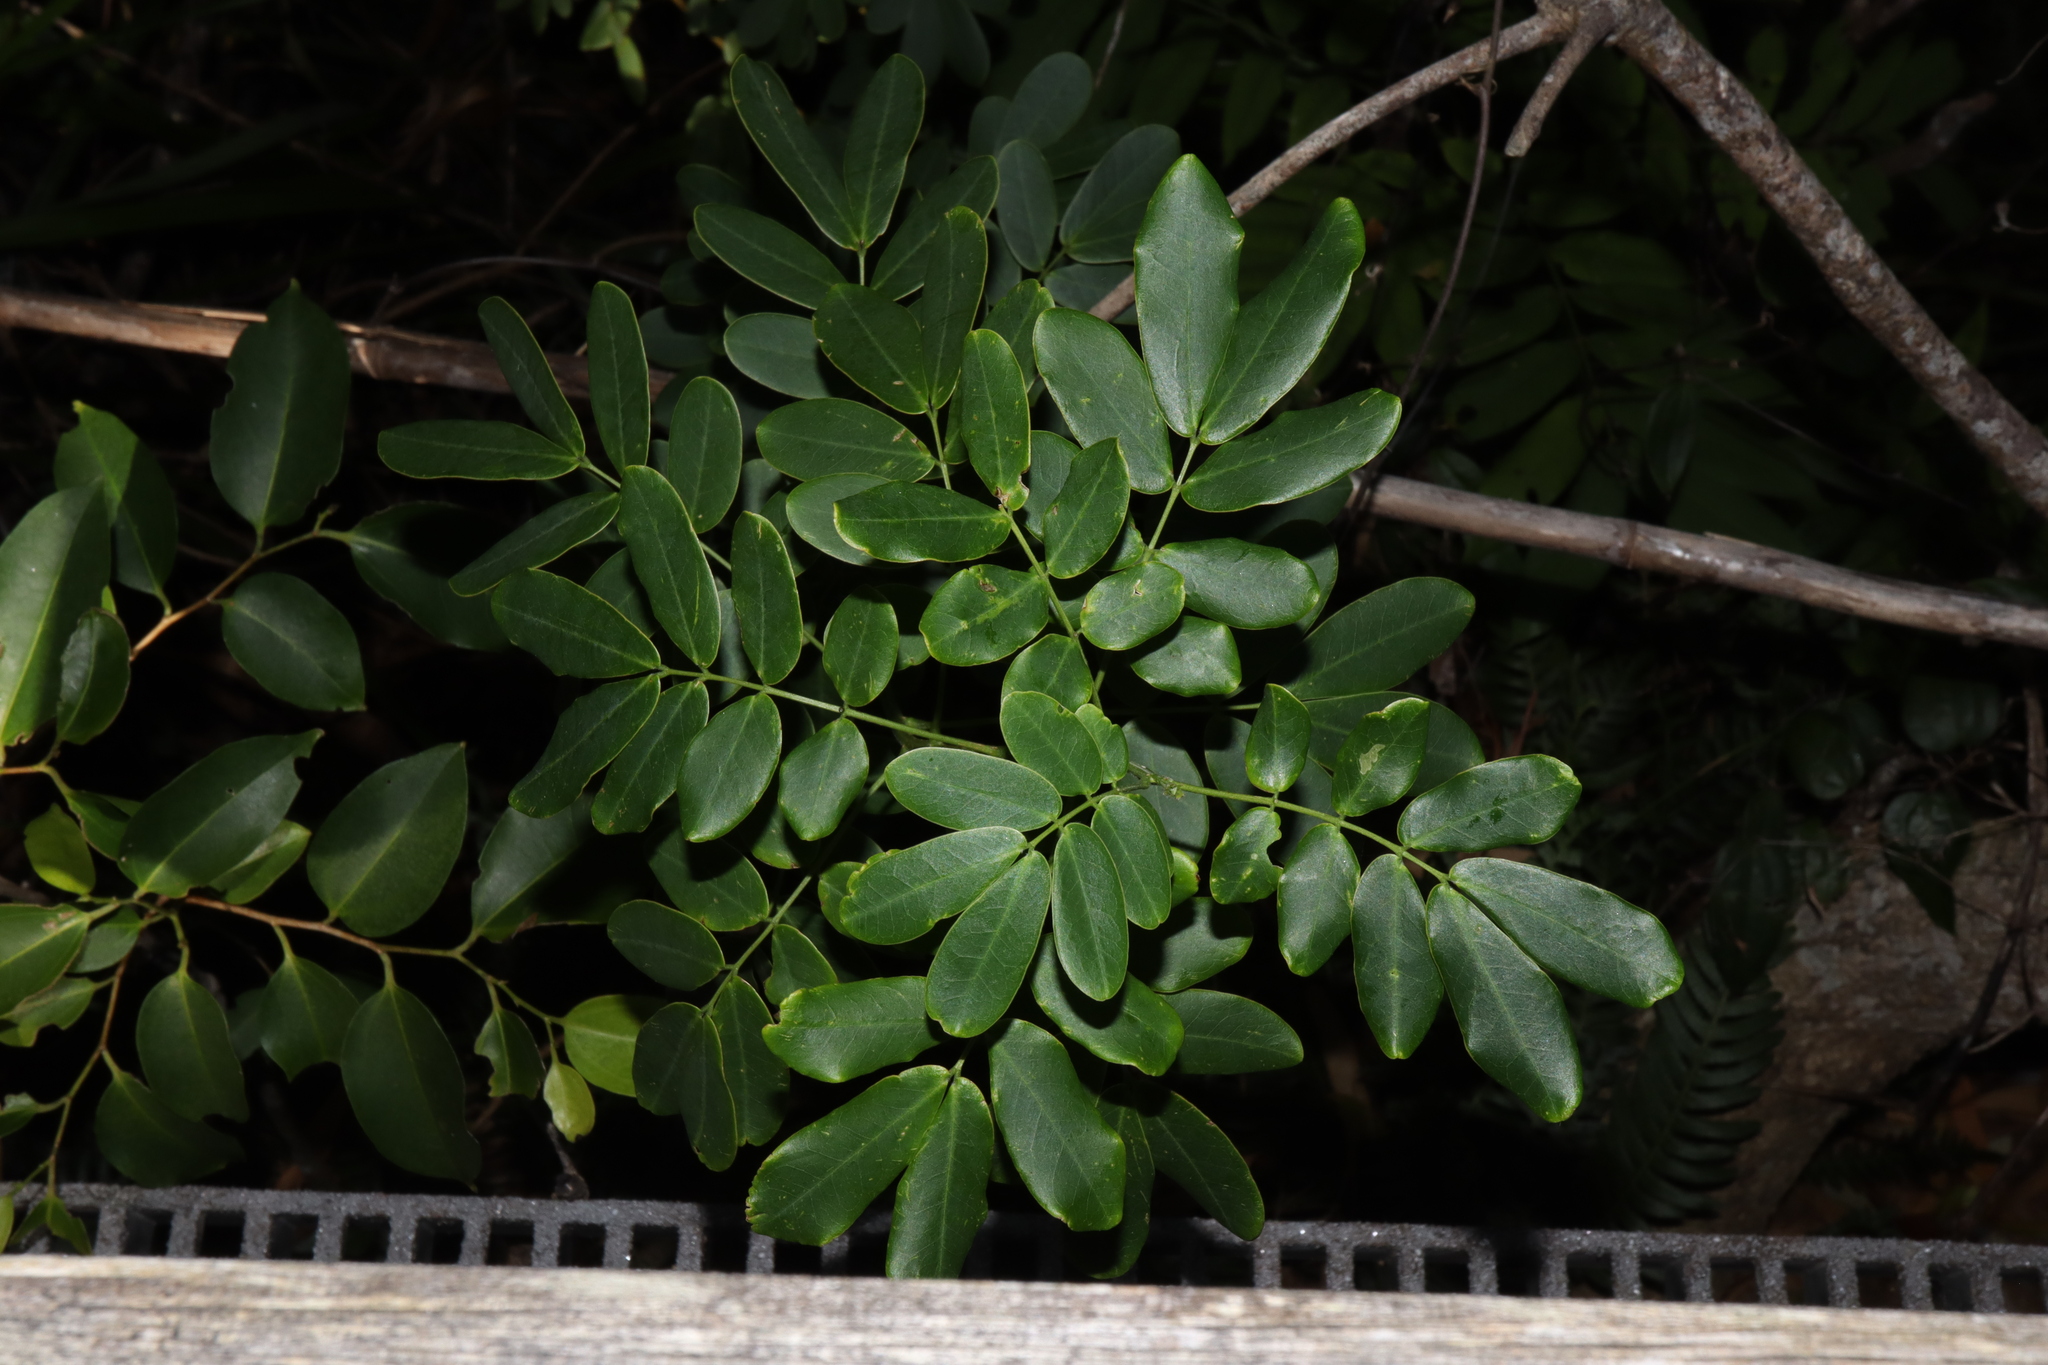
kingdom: Plantae
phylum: Tracheophyta
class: Magnoliopsida
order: Fabales
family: Fabaceae
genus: Senna
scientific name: Senna pendula
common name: Easter cassia
